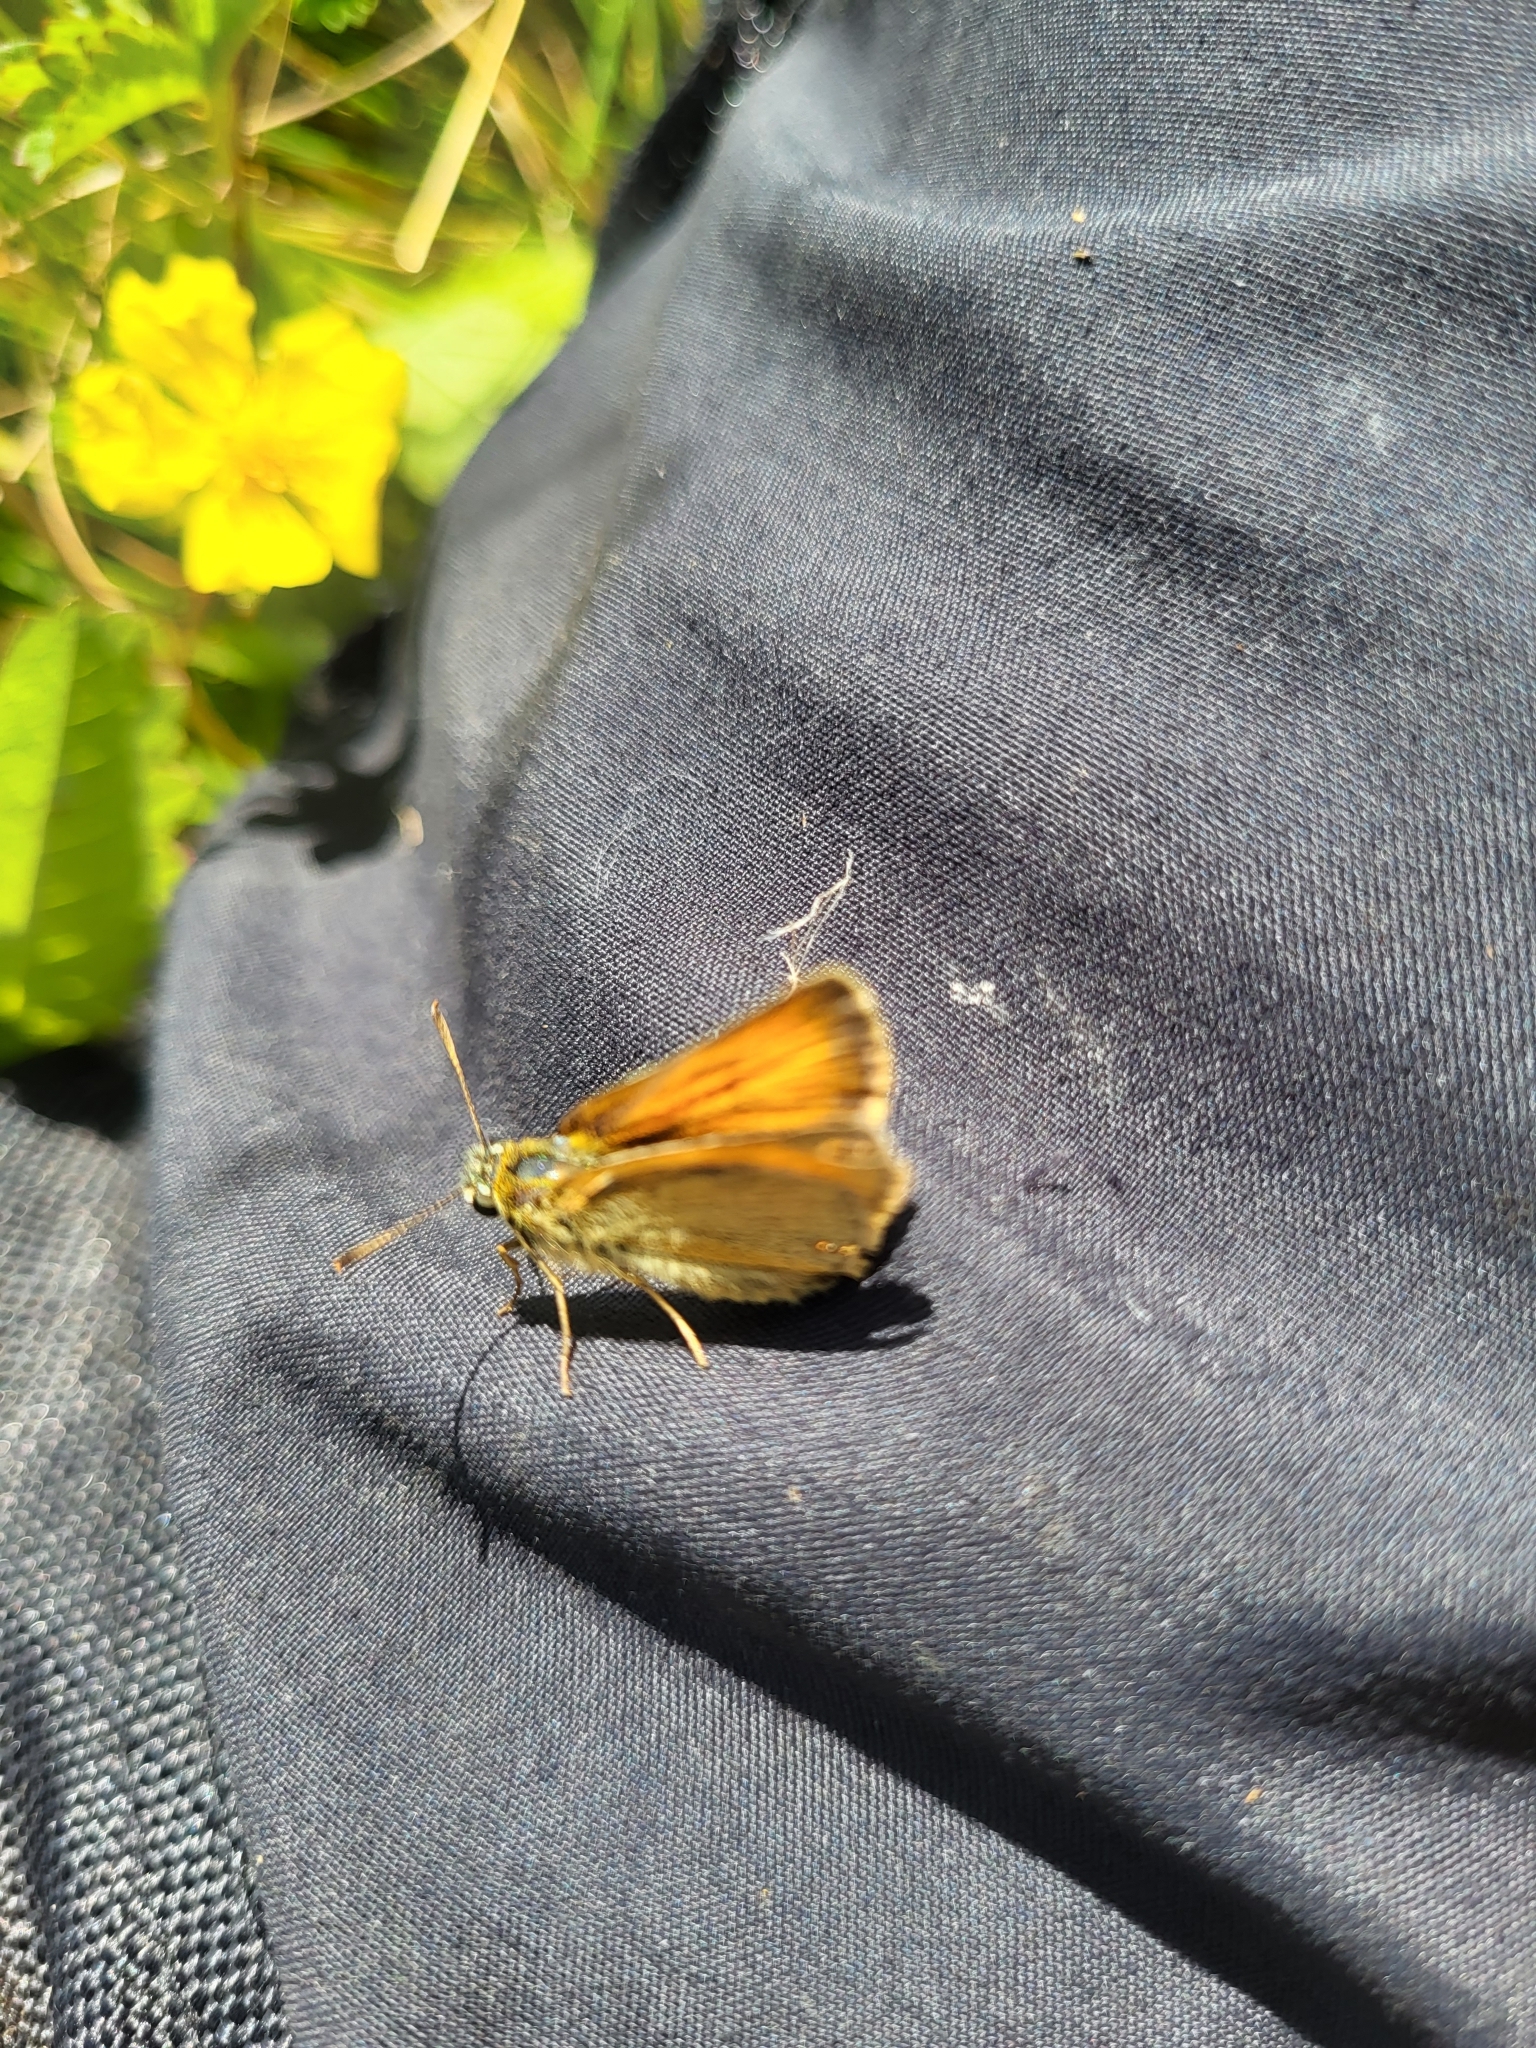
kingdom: Animalia
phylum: Arthropoda
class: Insecta
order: Lepidoptera
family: Hesperiidae
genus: Thymelicus
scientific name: Thymelicus sylvestris
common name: Small skipper
